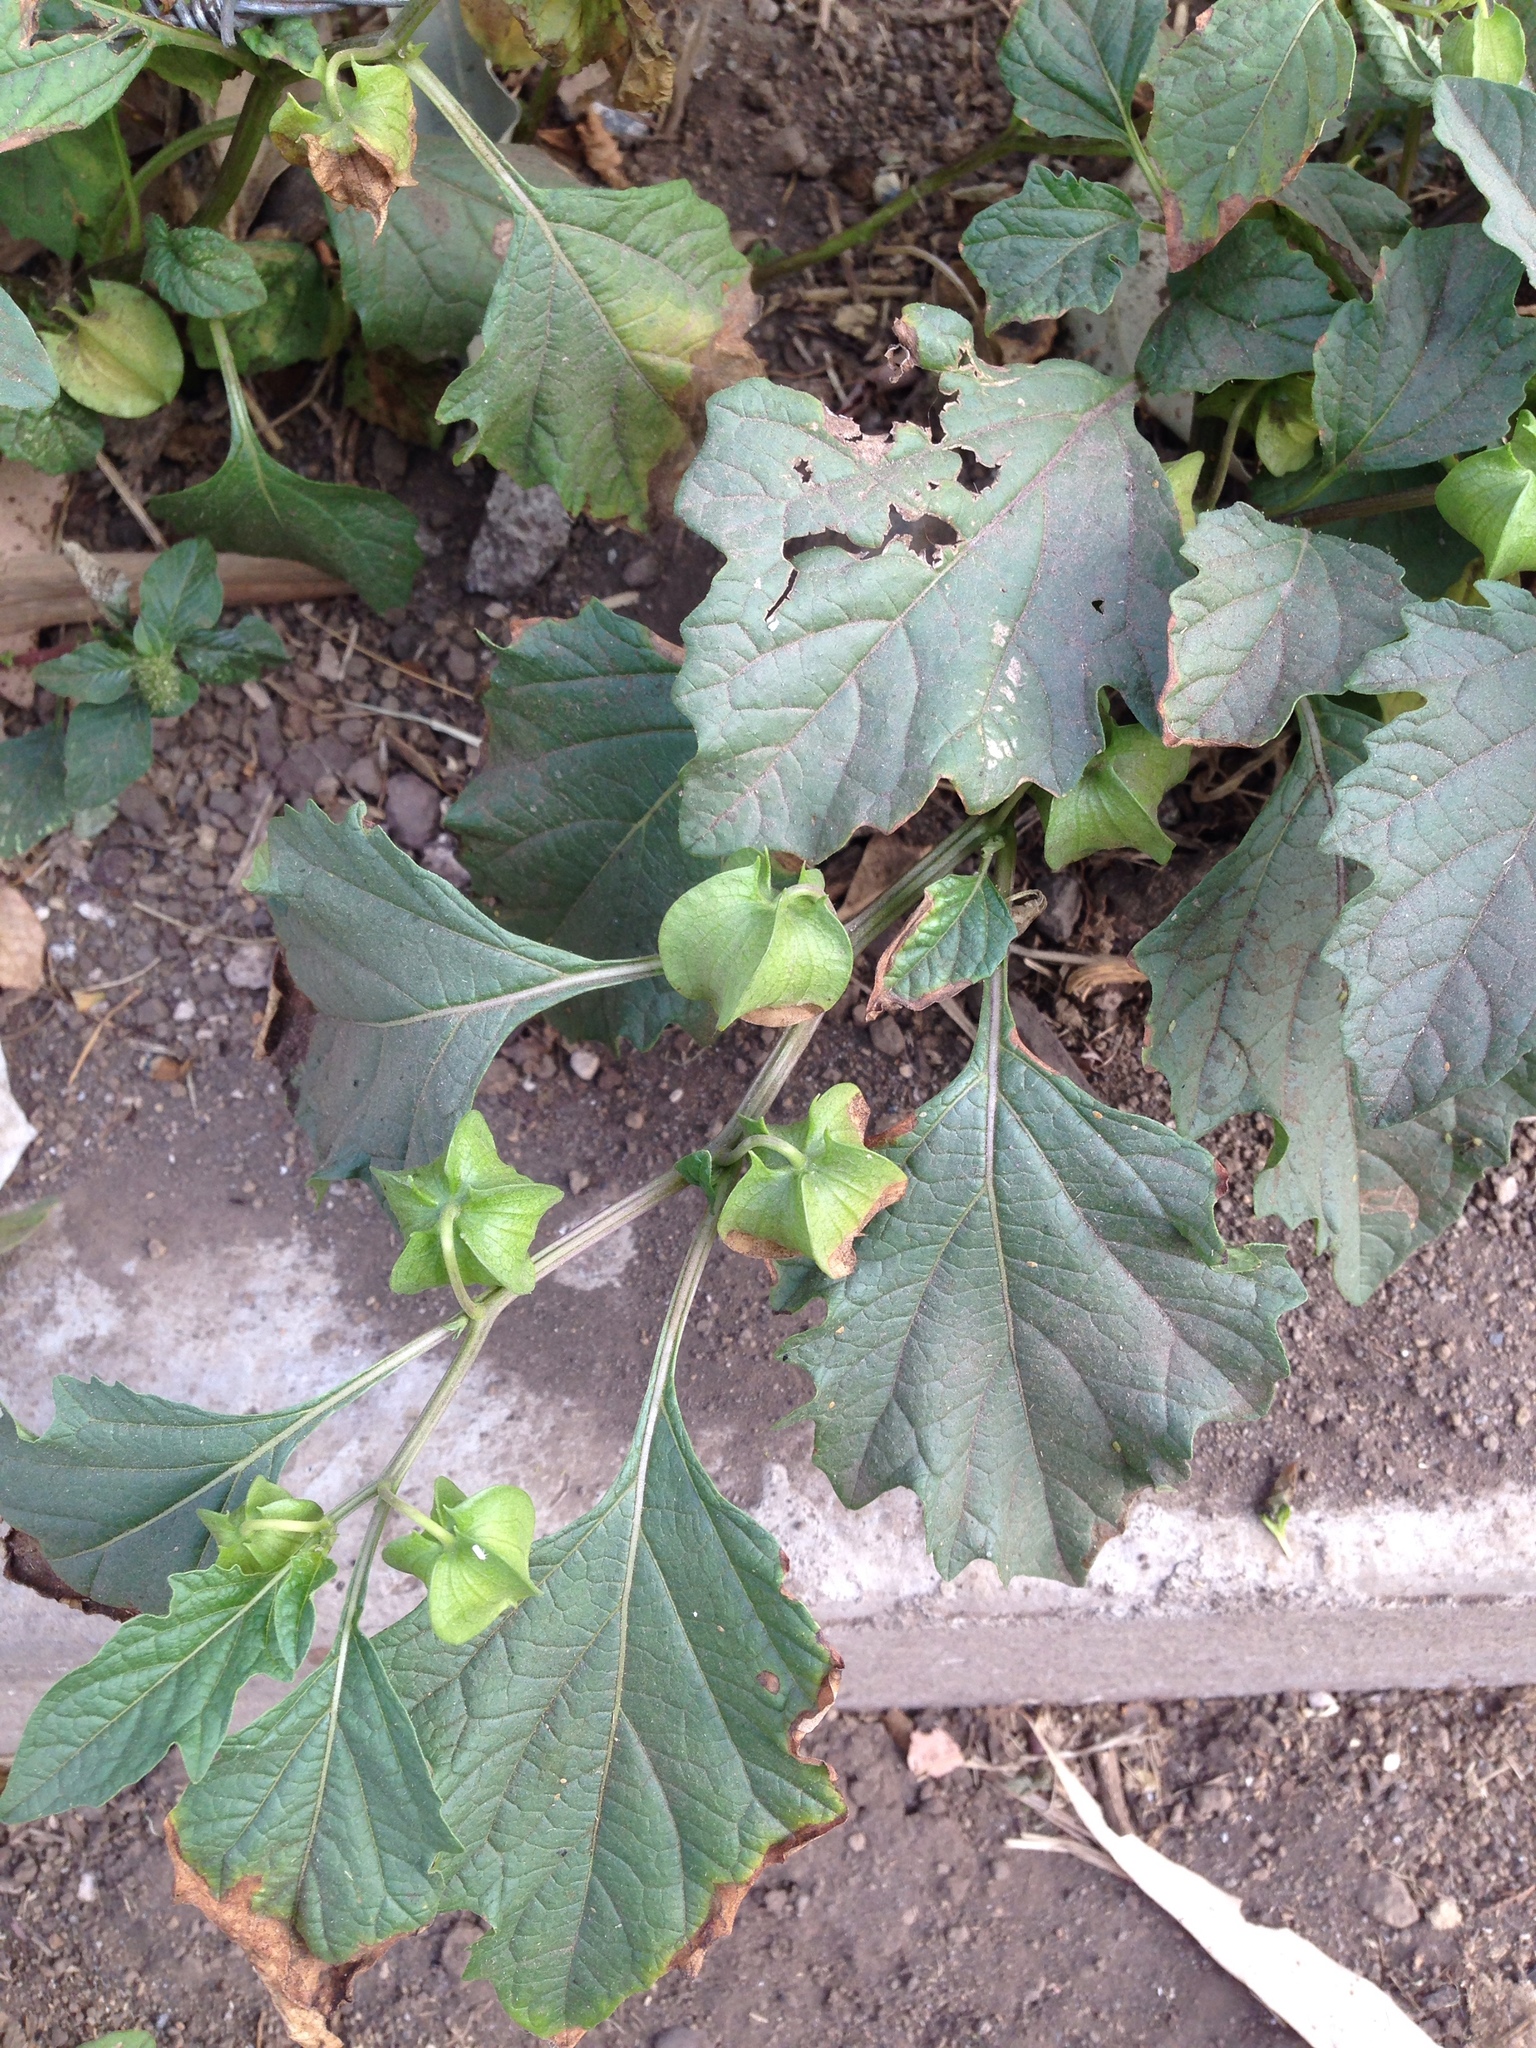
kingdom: Plantae
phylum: Tracheophyta
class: Magnoliopsida
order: Solanales
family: Solanaceae
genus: Nicandra
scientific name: Nicandra physalodes
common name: Apple-of-peru
